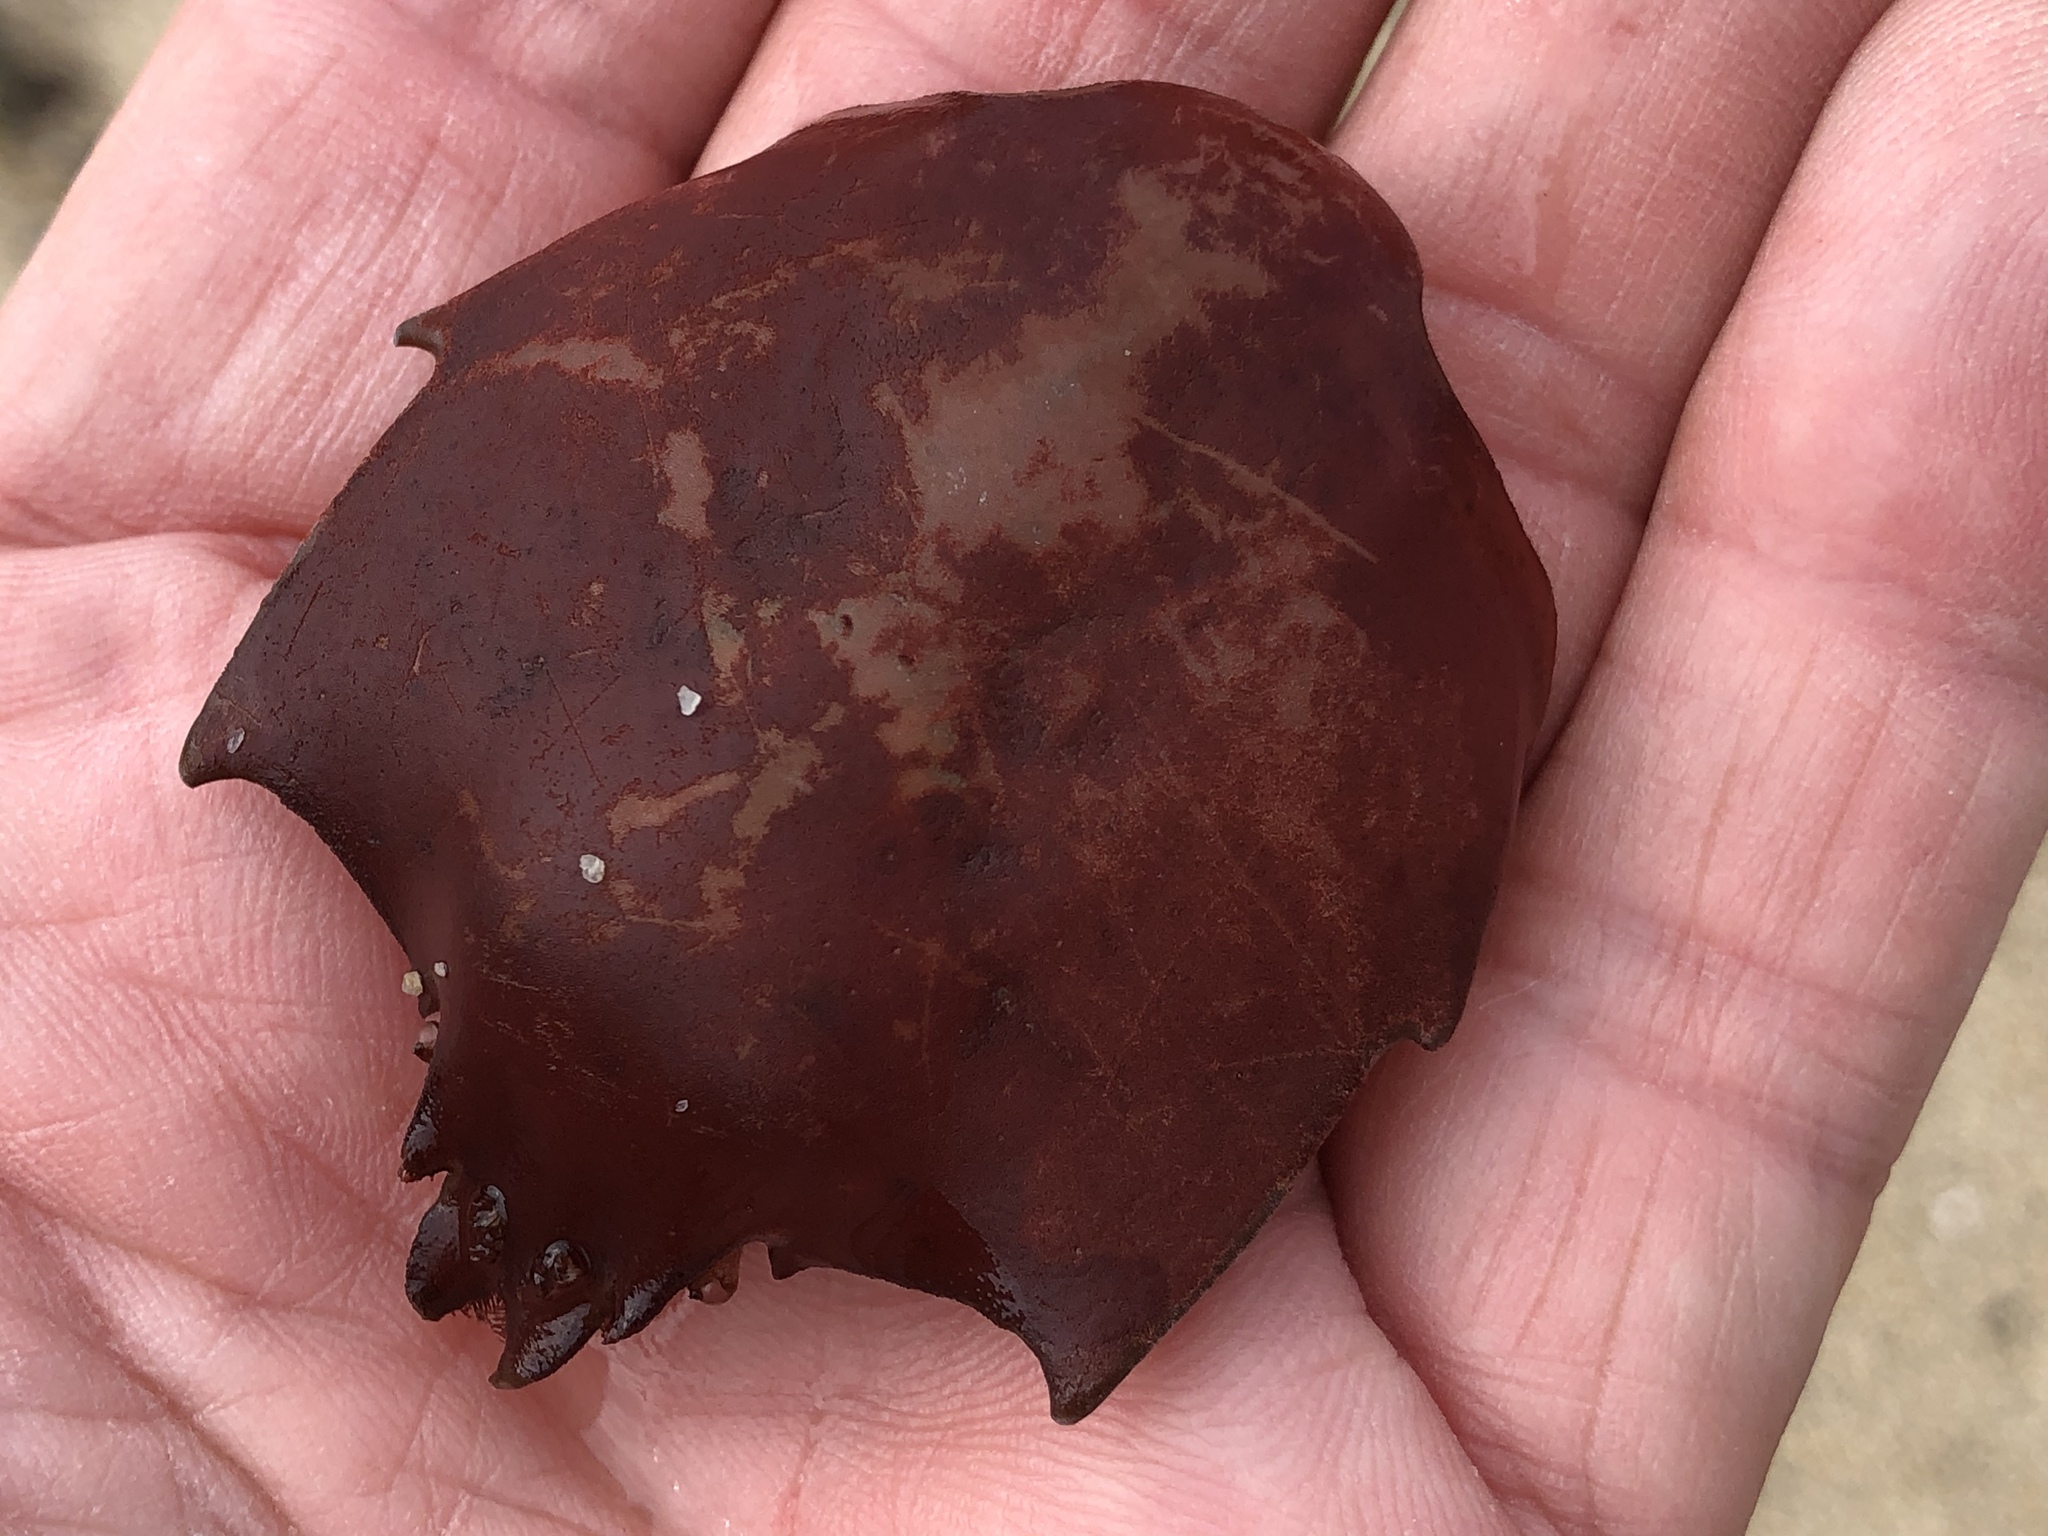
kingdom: Animalia
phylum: Arthropoda
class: Malacostraca
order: Decapoda
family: Epialtidae
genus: Pugettia
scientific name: Pugettia producta
